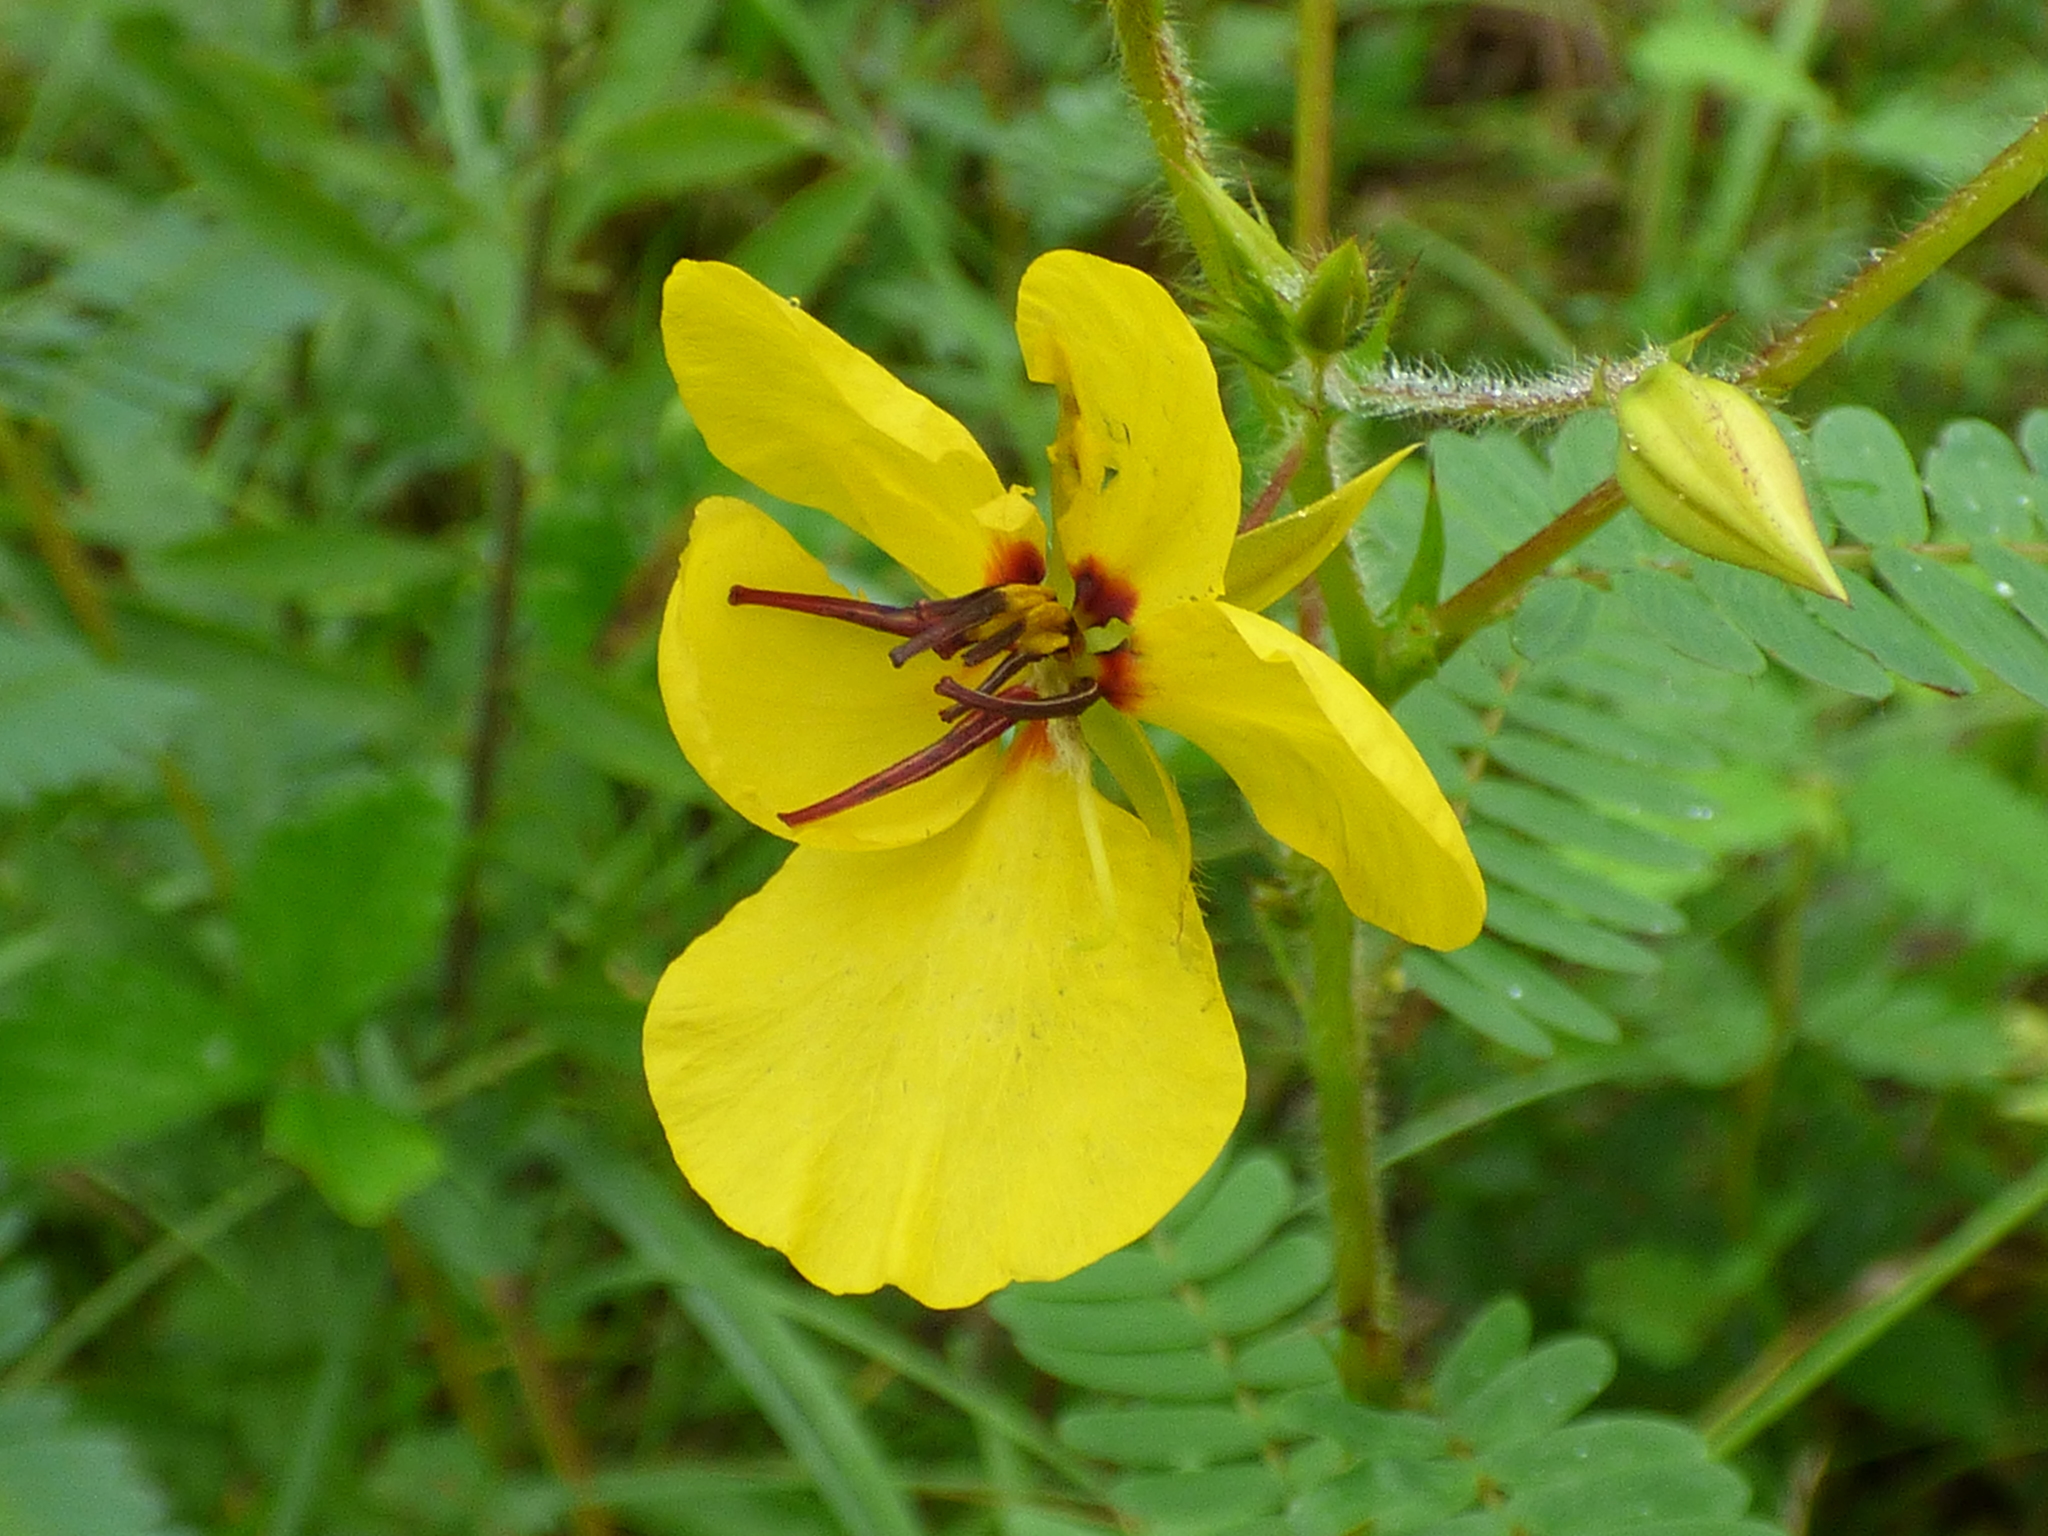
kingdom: Plantae
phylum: Tracheophyta
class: Magnoliopsida
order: Fabales
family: Fabaceae
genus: Chamaecrista
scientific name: Chamaecrista fasciculata
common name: Golden cassia
